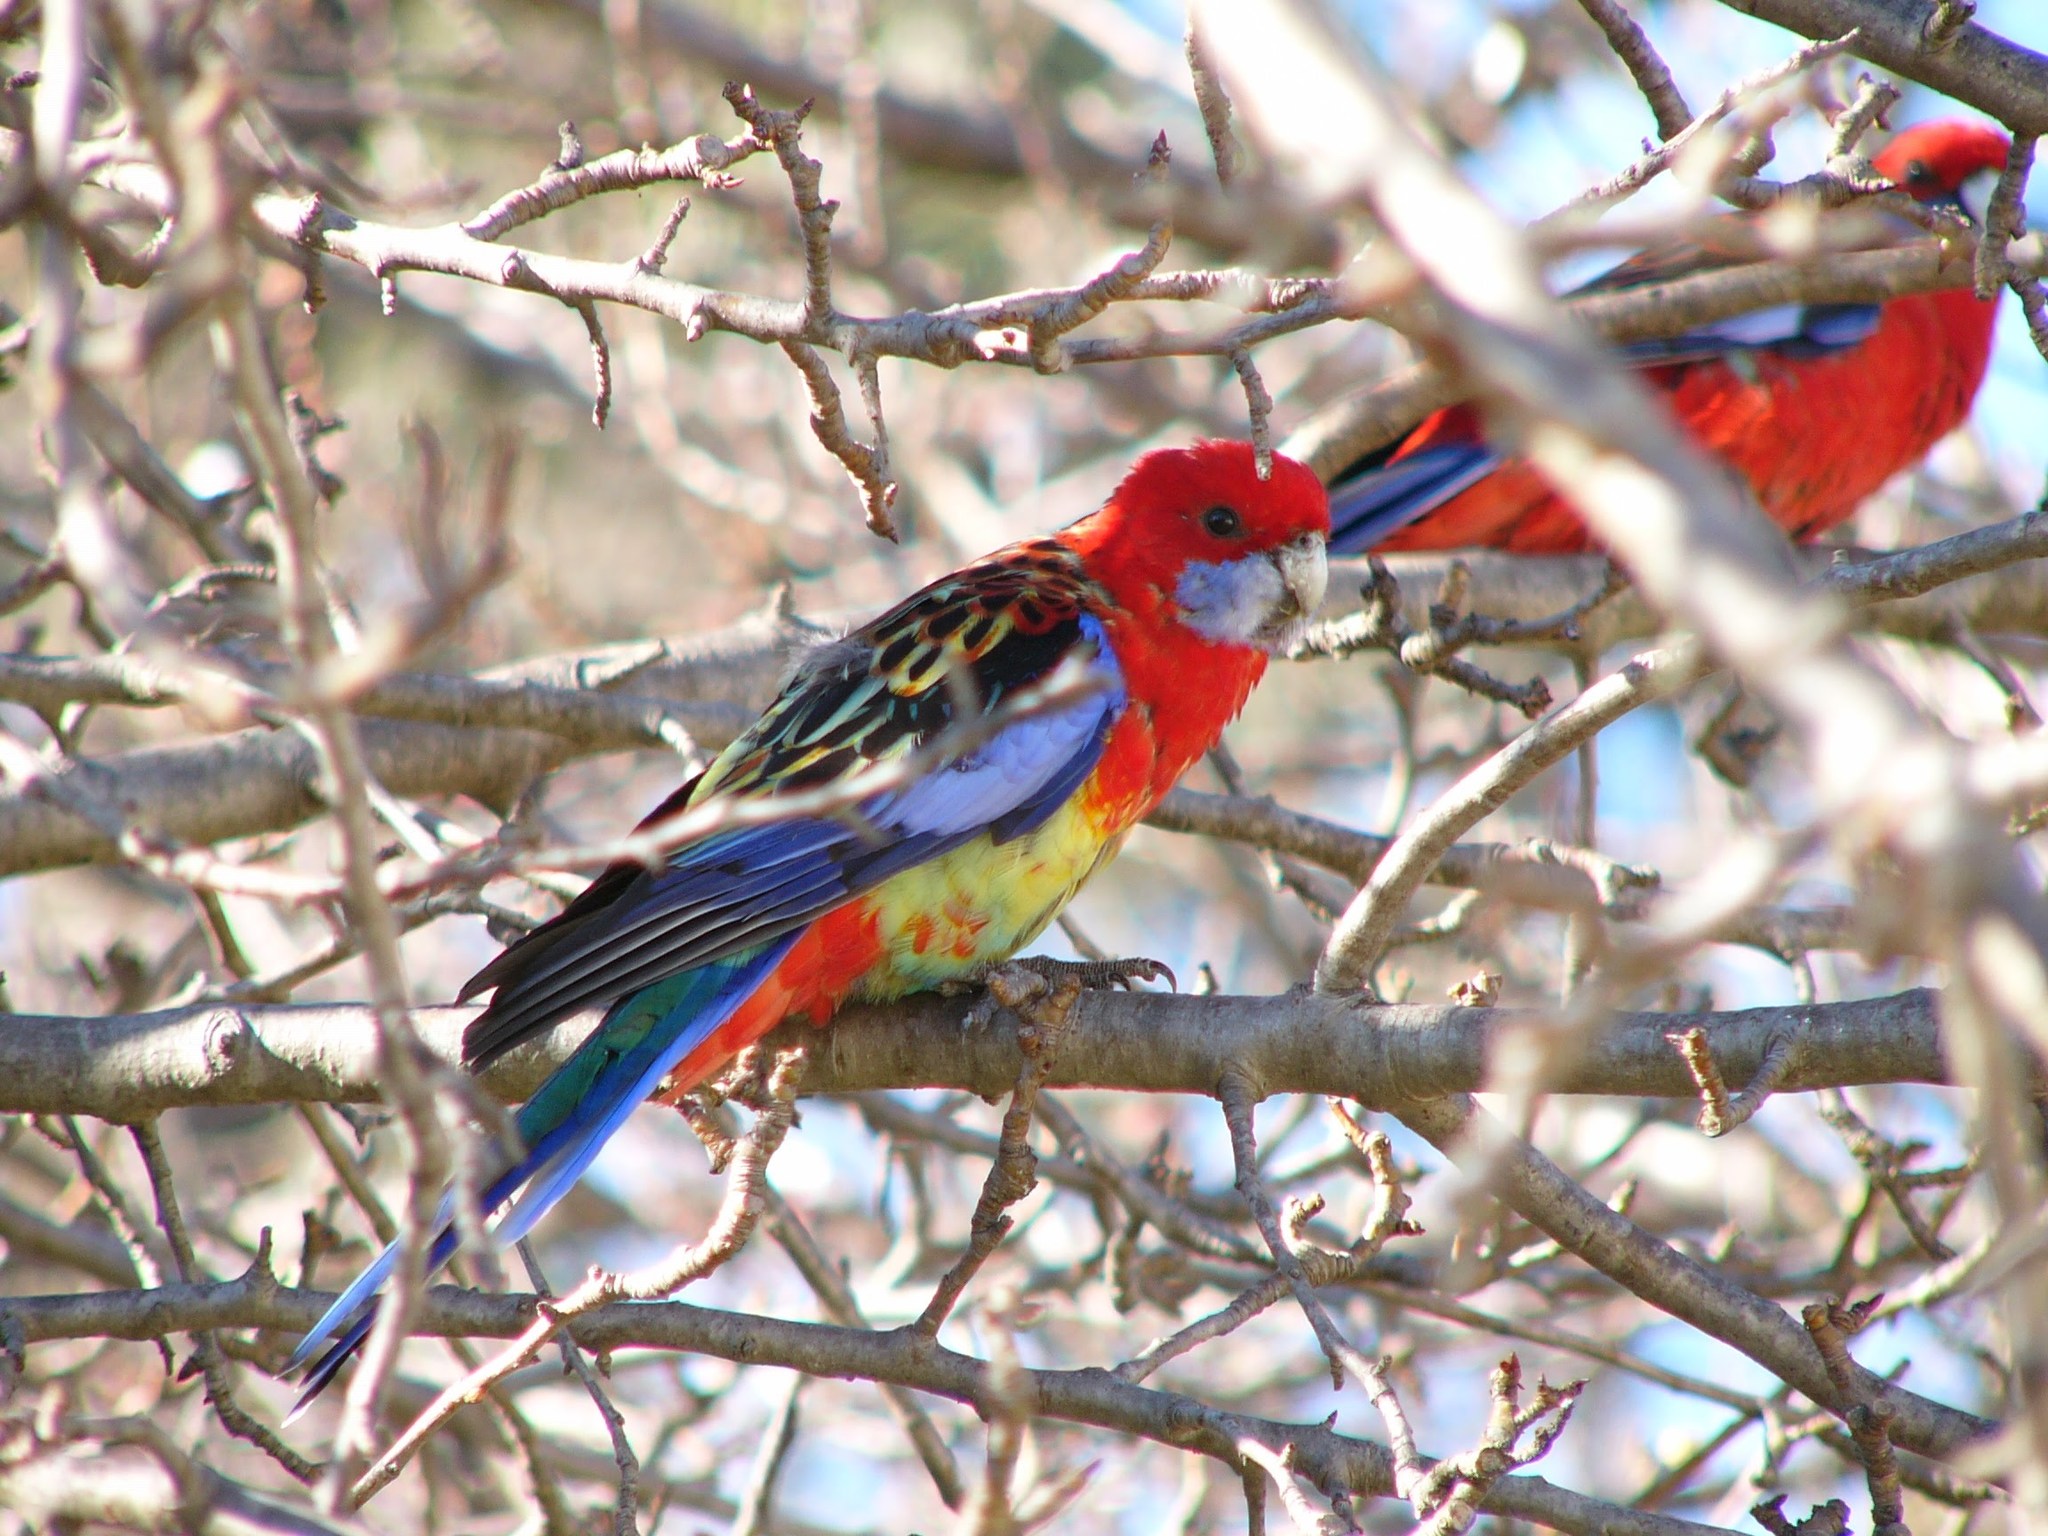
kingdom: Animalia
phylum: Chordata
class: Aves
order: Psittaciformes
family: Psittacidae
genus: Platycercus
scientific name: Platycercus
